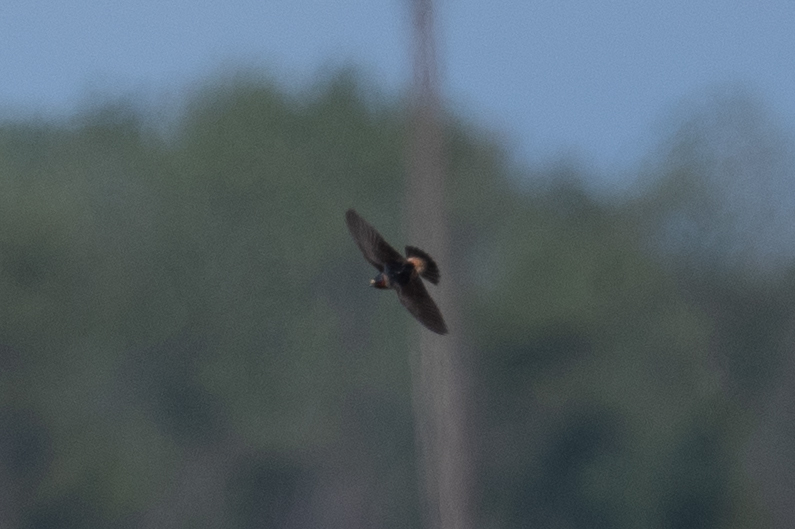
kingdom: Animalia
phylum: Chordata
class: Aves
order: Passeriformes
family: Hirundinidae
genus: Petrochelidon
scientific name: Petrochelidon pyrrhonota
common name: American cliff swallow
